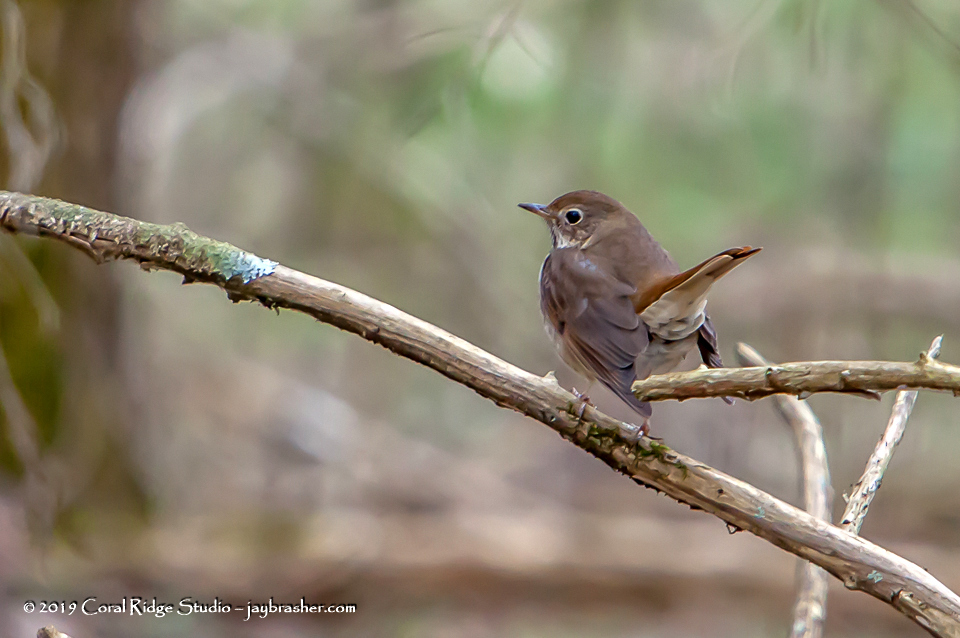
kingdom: Animalia
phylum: Chordata
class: Aves
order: Passeriformes
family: Turdidae
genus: Catharus
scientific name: Catharus guttatus
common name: Hermit thrush
